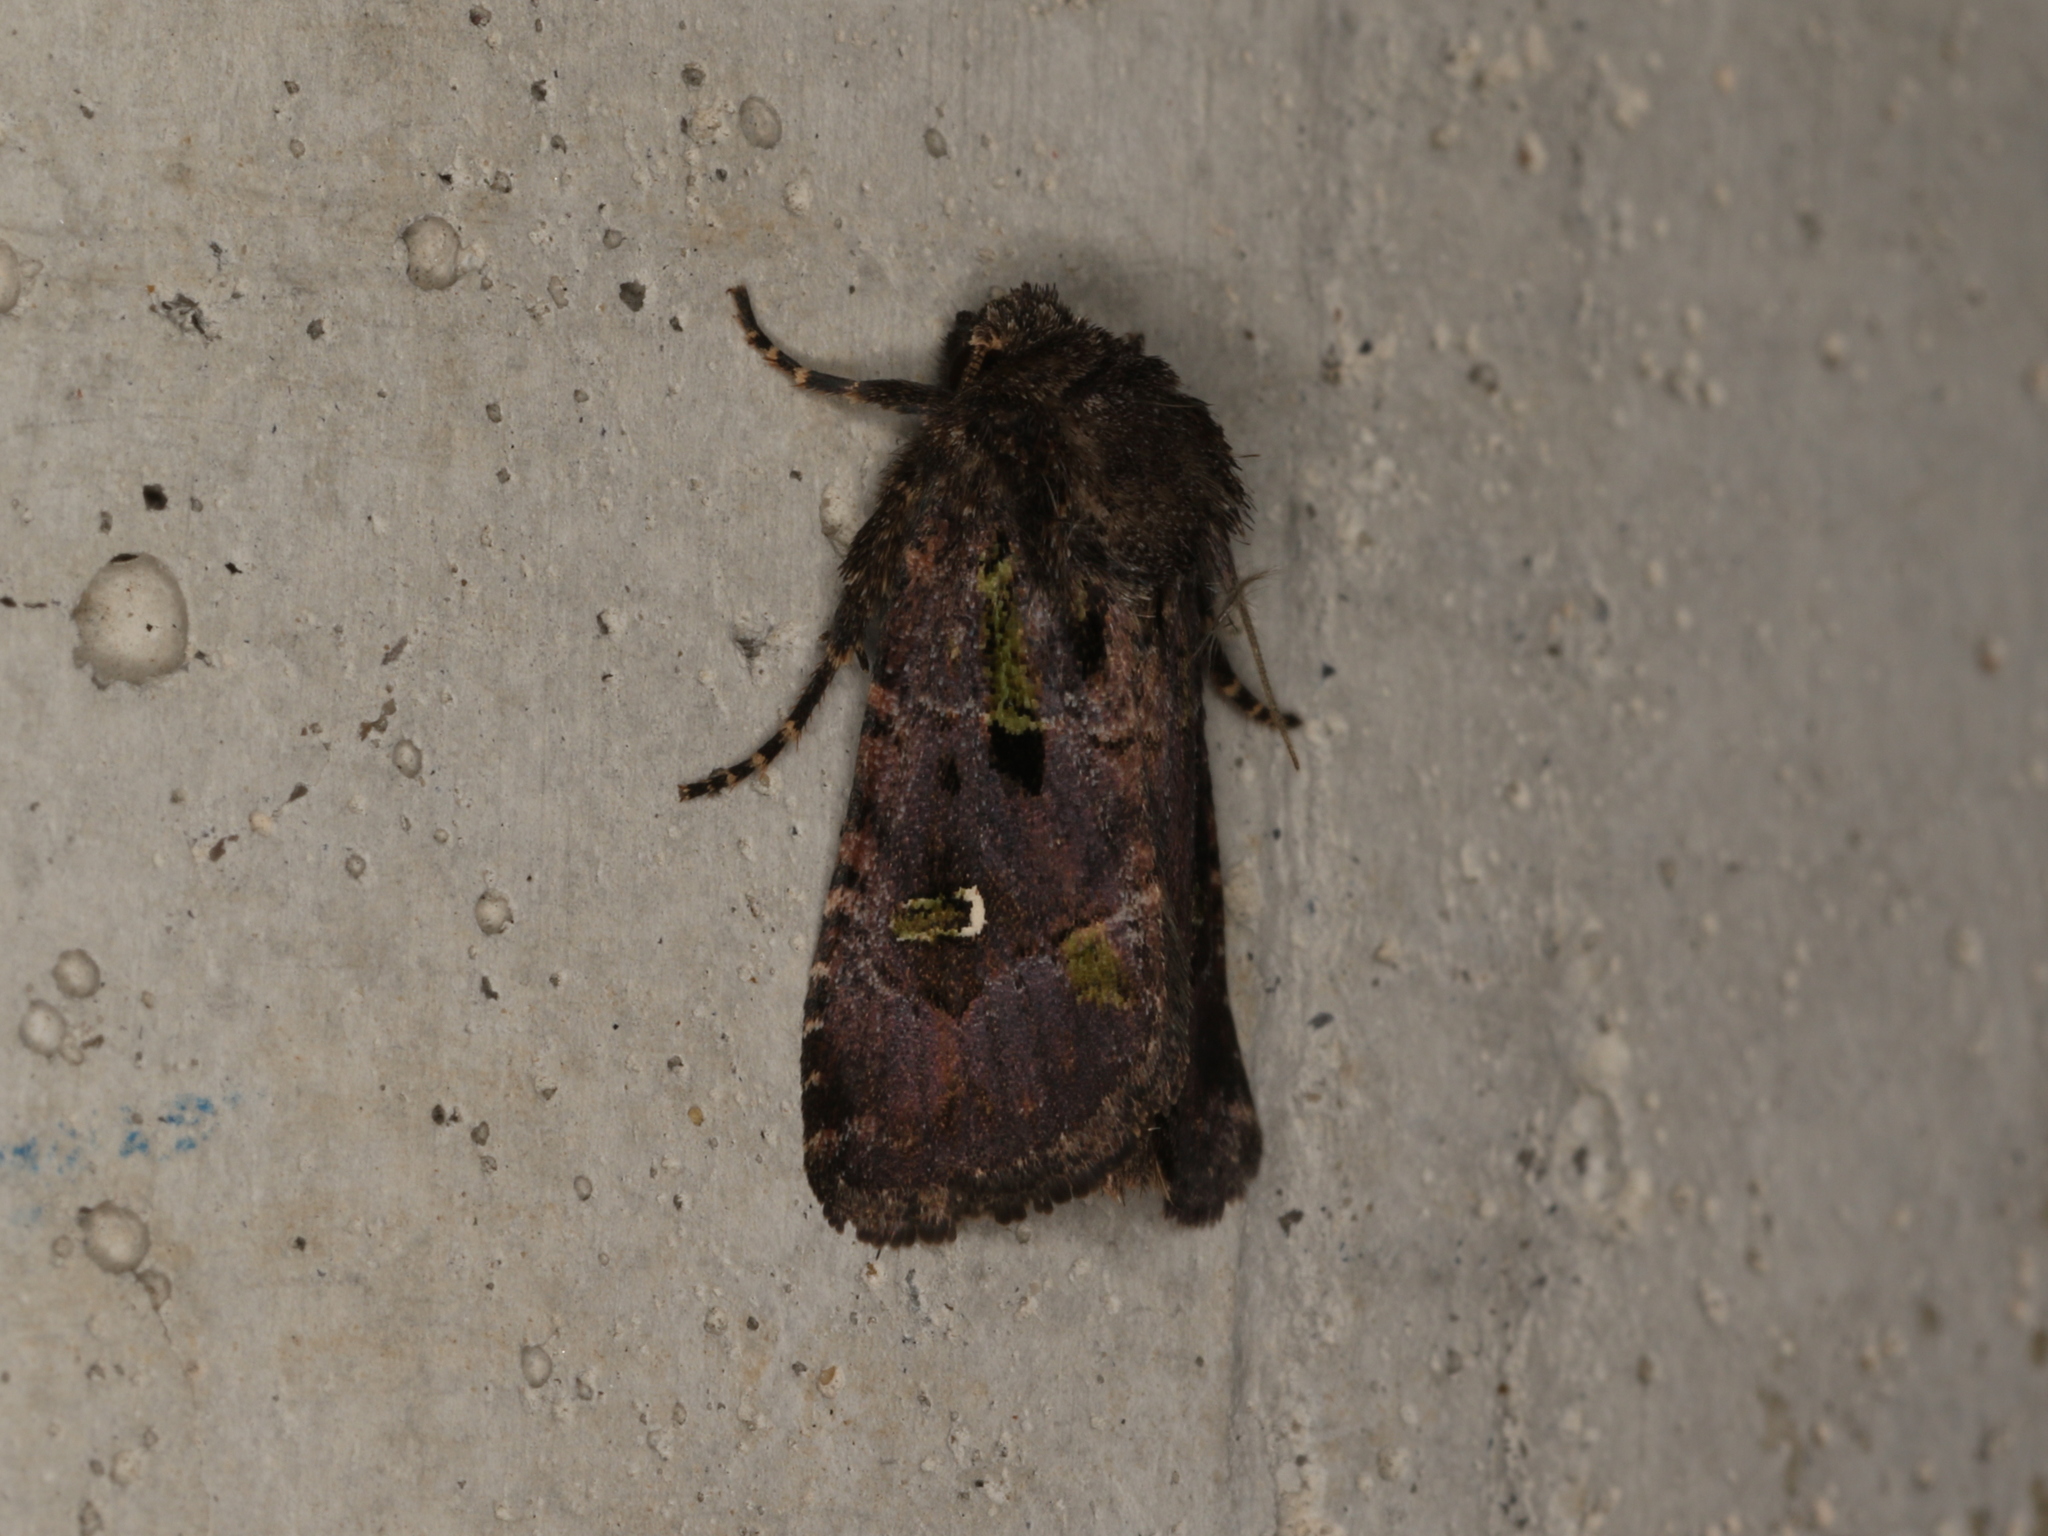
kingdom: Animalia
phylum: Arthropoda
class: Insecta
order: Lepidoptera
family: Noctuidae
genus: Lacinipolia
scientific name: Lacinipolia renigera
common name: Kidney-spotted minor
